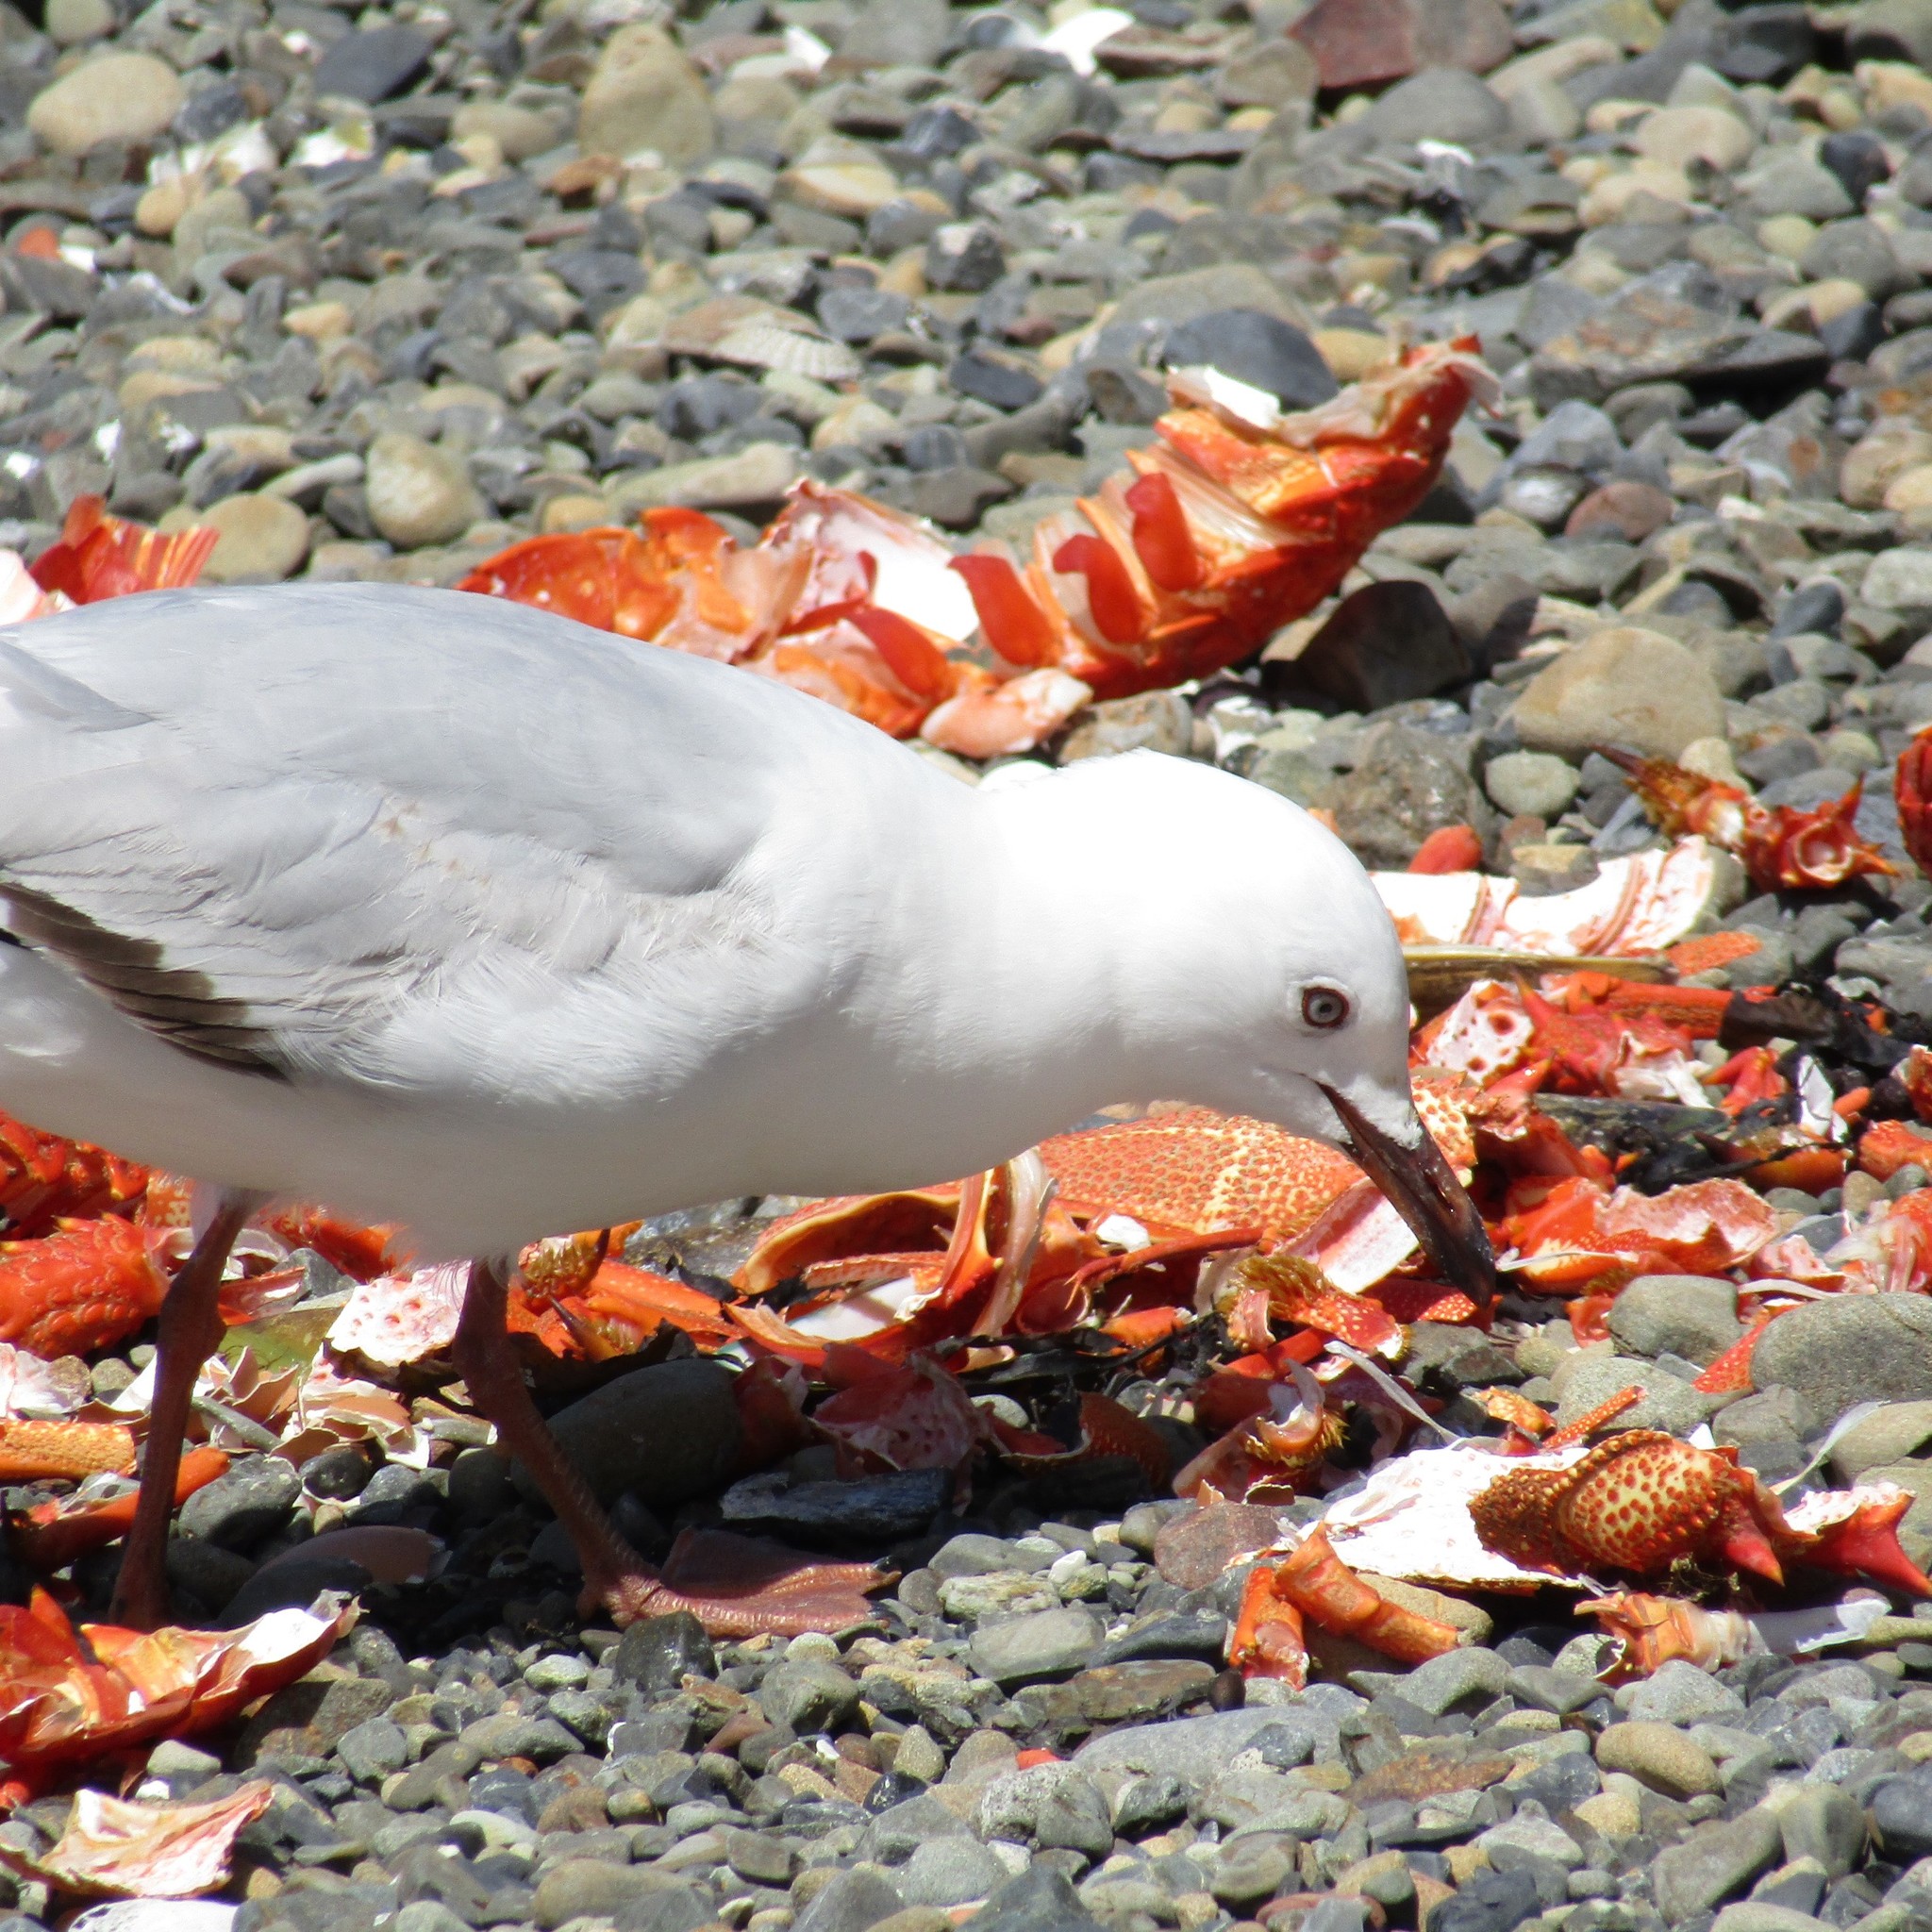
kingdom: Animalia
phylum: Chordata
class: Aves
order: Charadriiformes
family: Laridae
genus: Chroicocephalus
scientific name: Chroicocephalus novaehollandiae
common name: Silver gull
